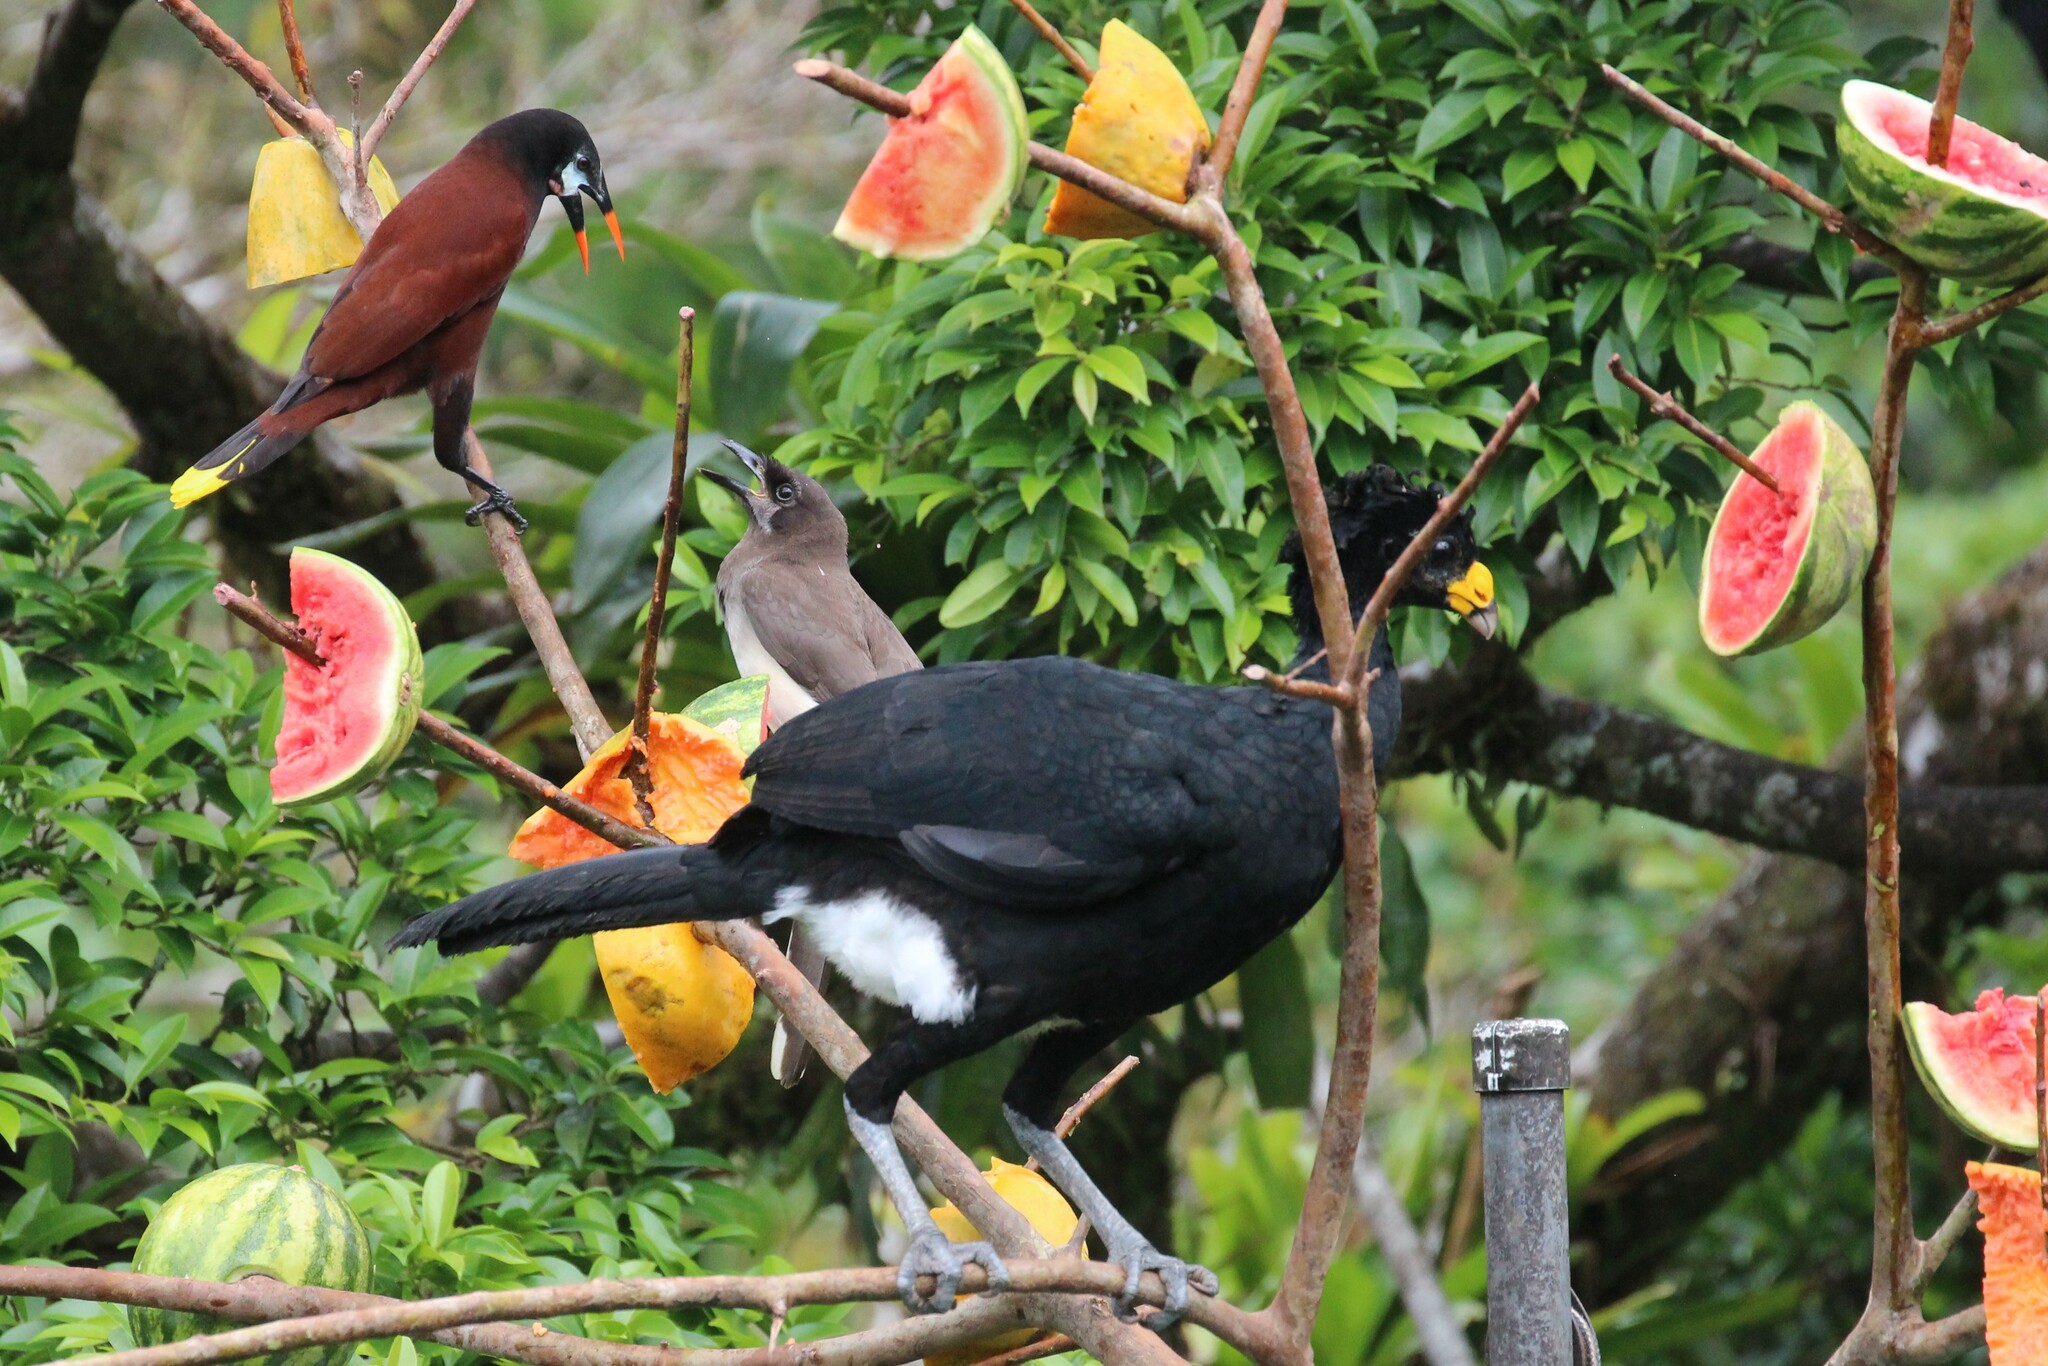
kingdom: Animalia
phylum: Chordata
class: Aves
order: Passeriformes
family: Corvidae
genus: Psilorhinus
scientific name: Psilorhinus morio
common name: Brown jay
